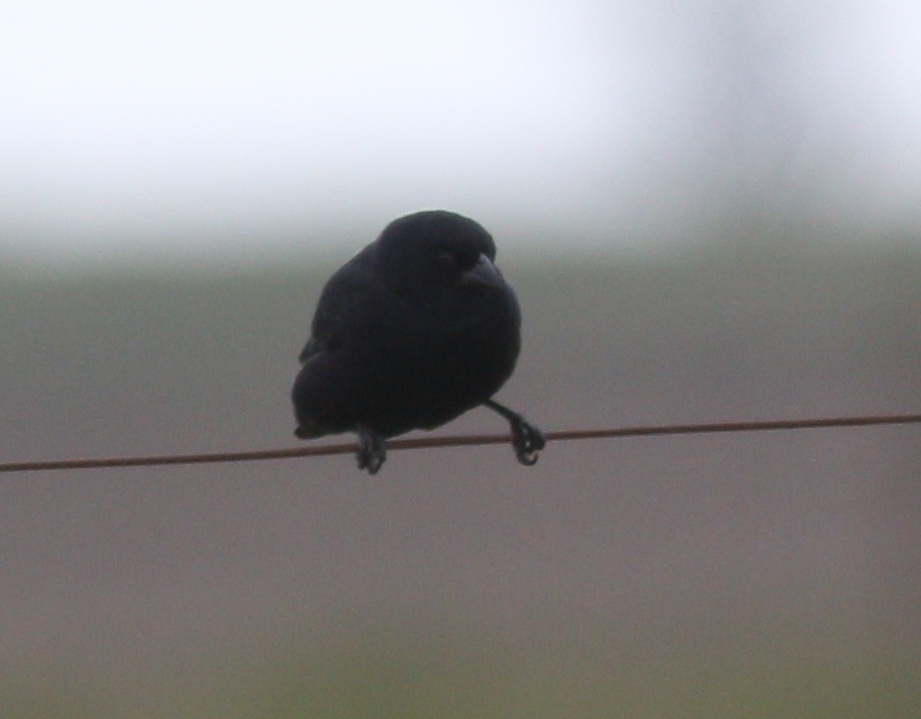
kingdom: Animalia
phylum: Chordata
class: Aves
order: Passeriformes
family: Icteridae
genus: Molothrus
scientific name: Molothrus rufoaxillaris
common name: Screaming cowbird
